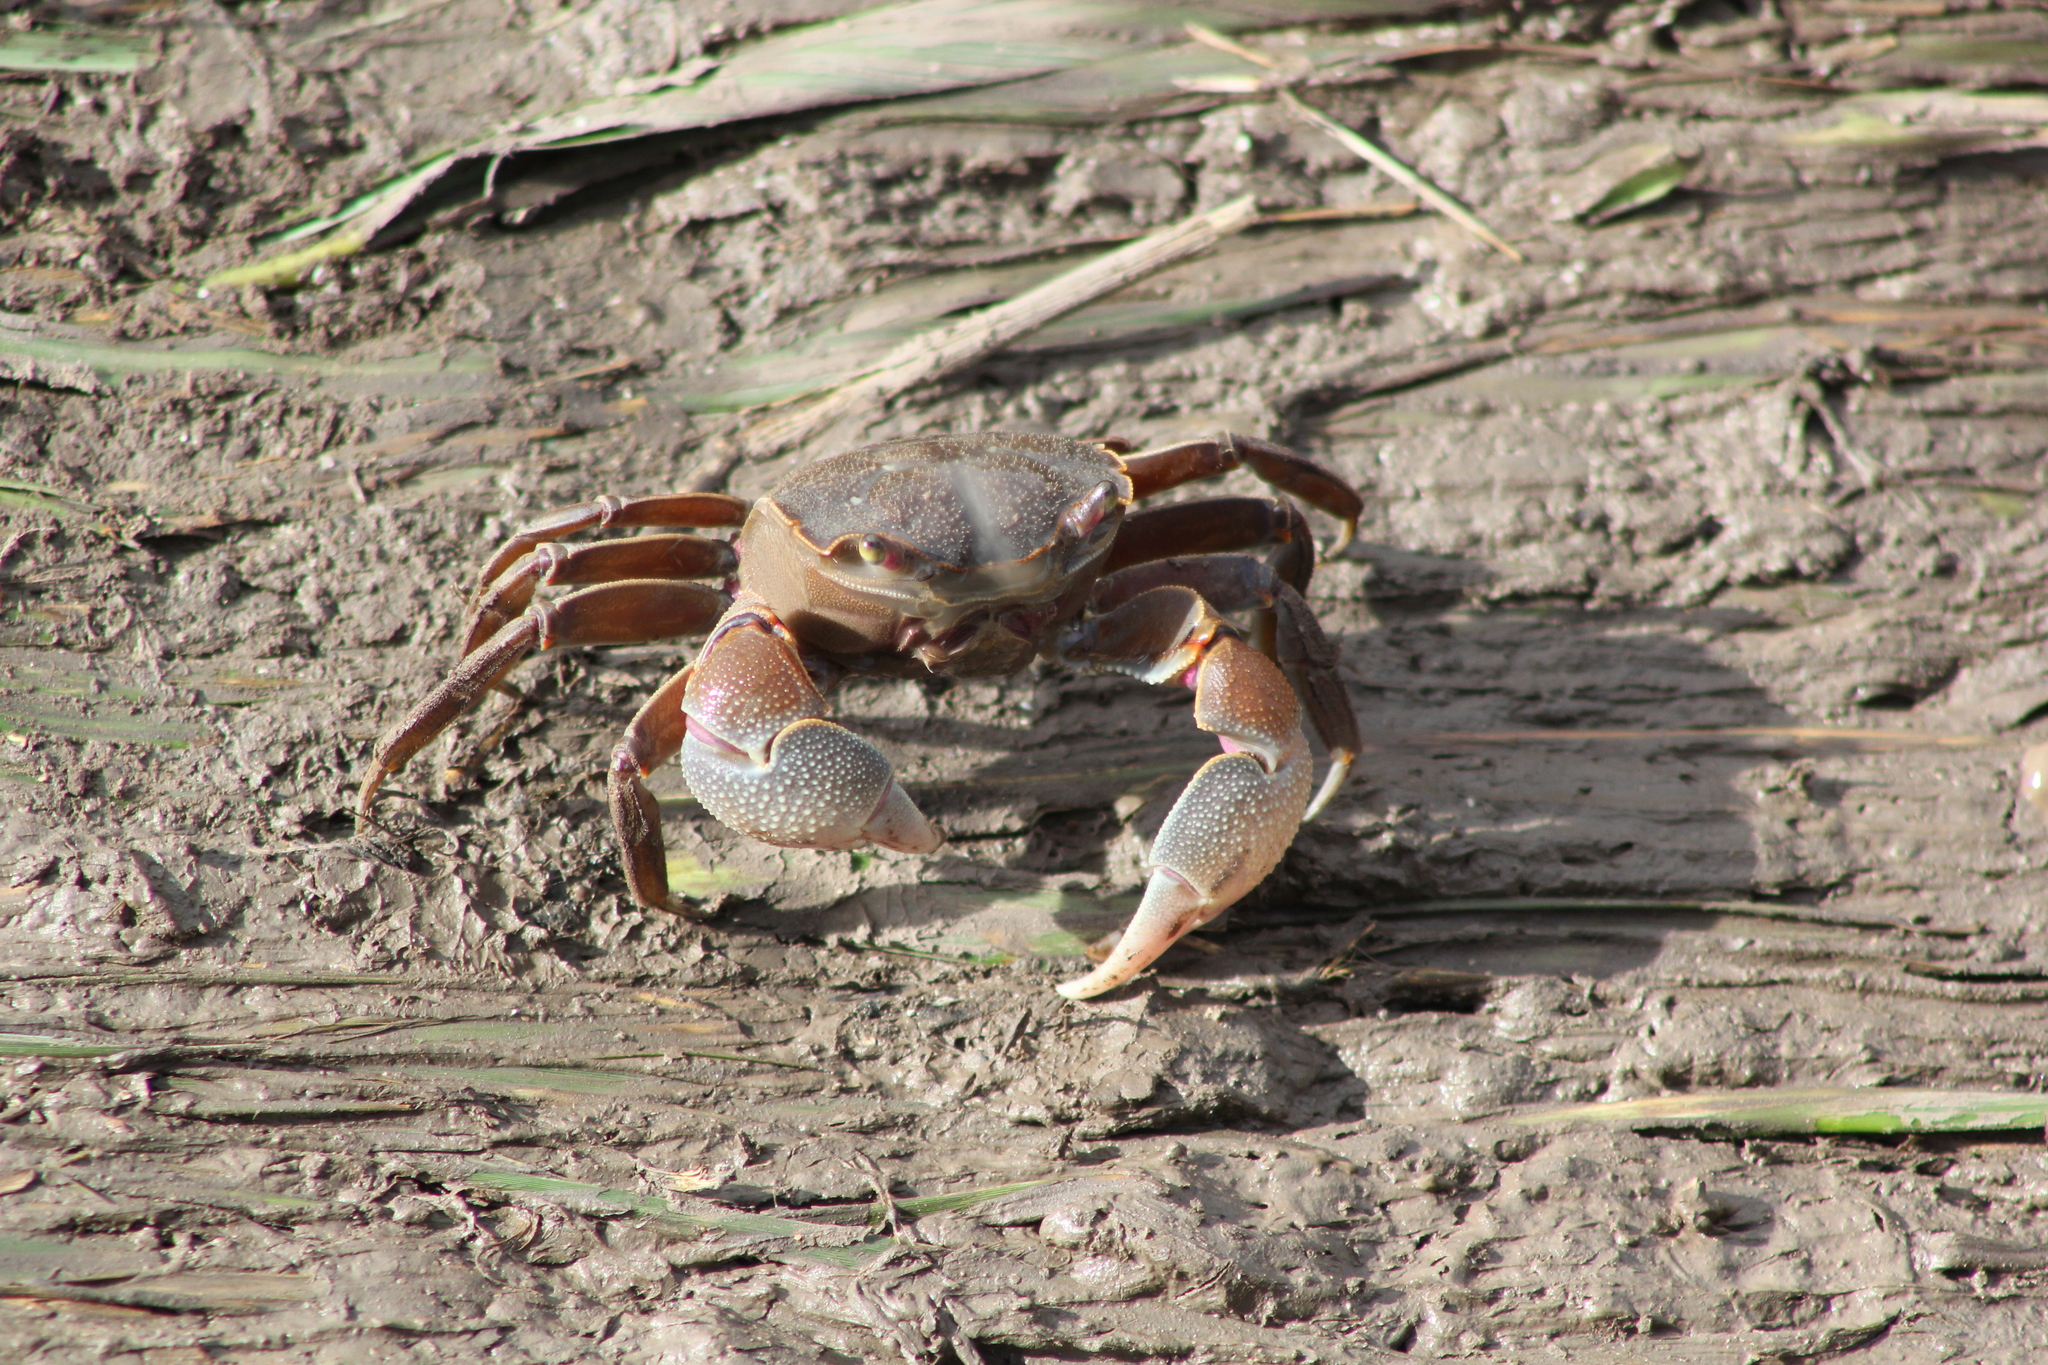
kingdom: Animalia
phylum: Arthropoda
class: Malacostraca
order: Decapoda
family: Varunidae
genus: Neohelice
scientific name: Neohelice granulata
